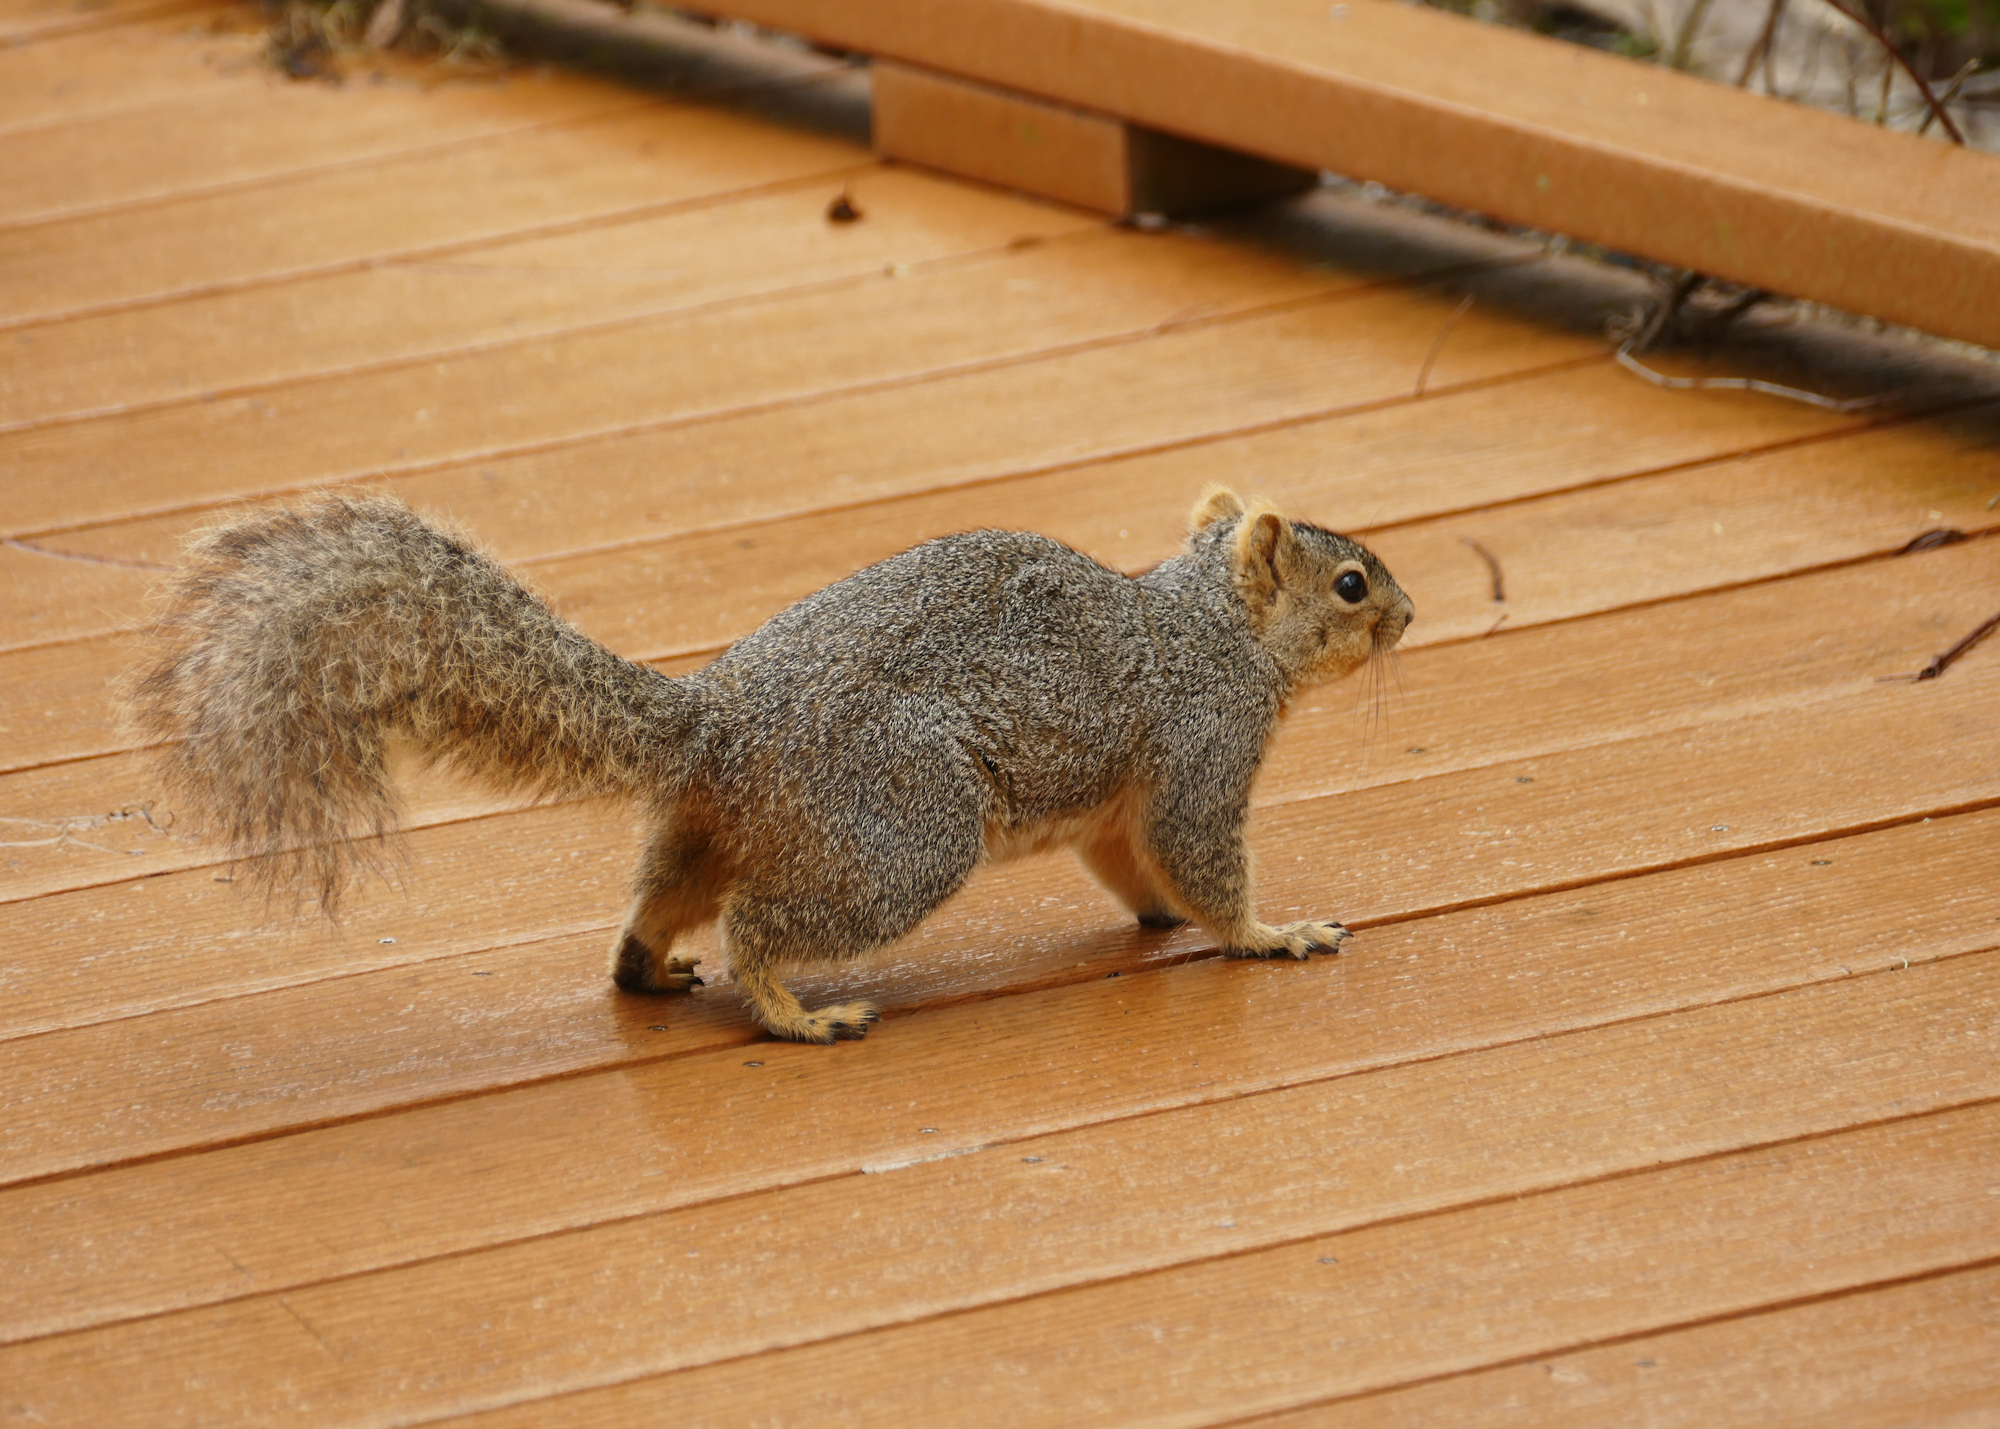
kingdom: Animalia
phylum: Chordata
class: Mammalia
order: Rodentia
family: Sciuridae
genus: Sciurus
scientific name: Sciurus niger
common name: Fox squirrel
